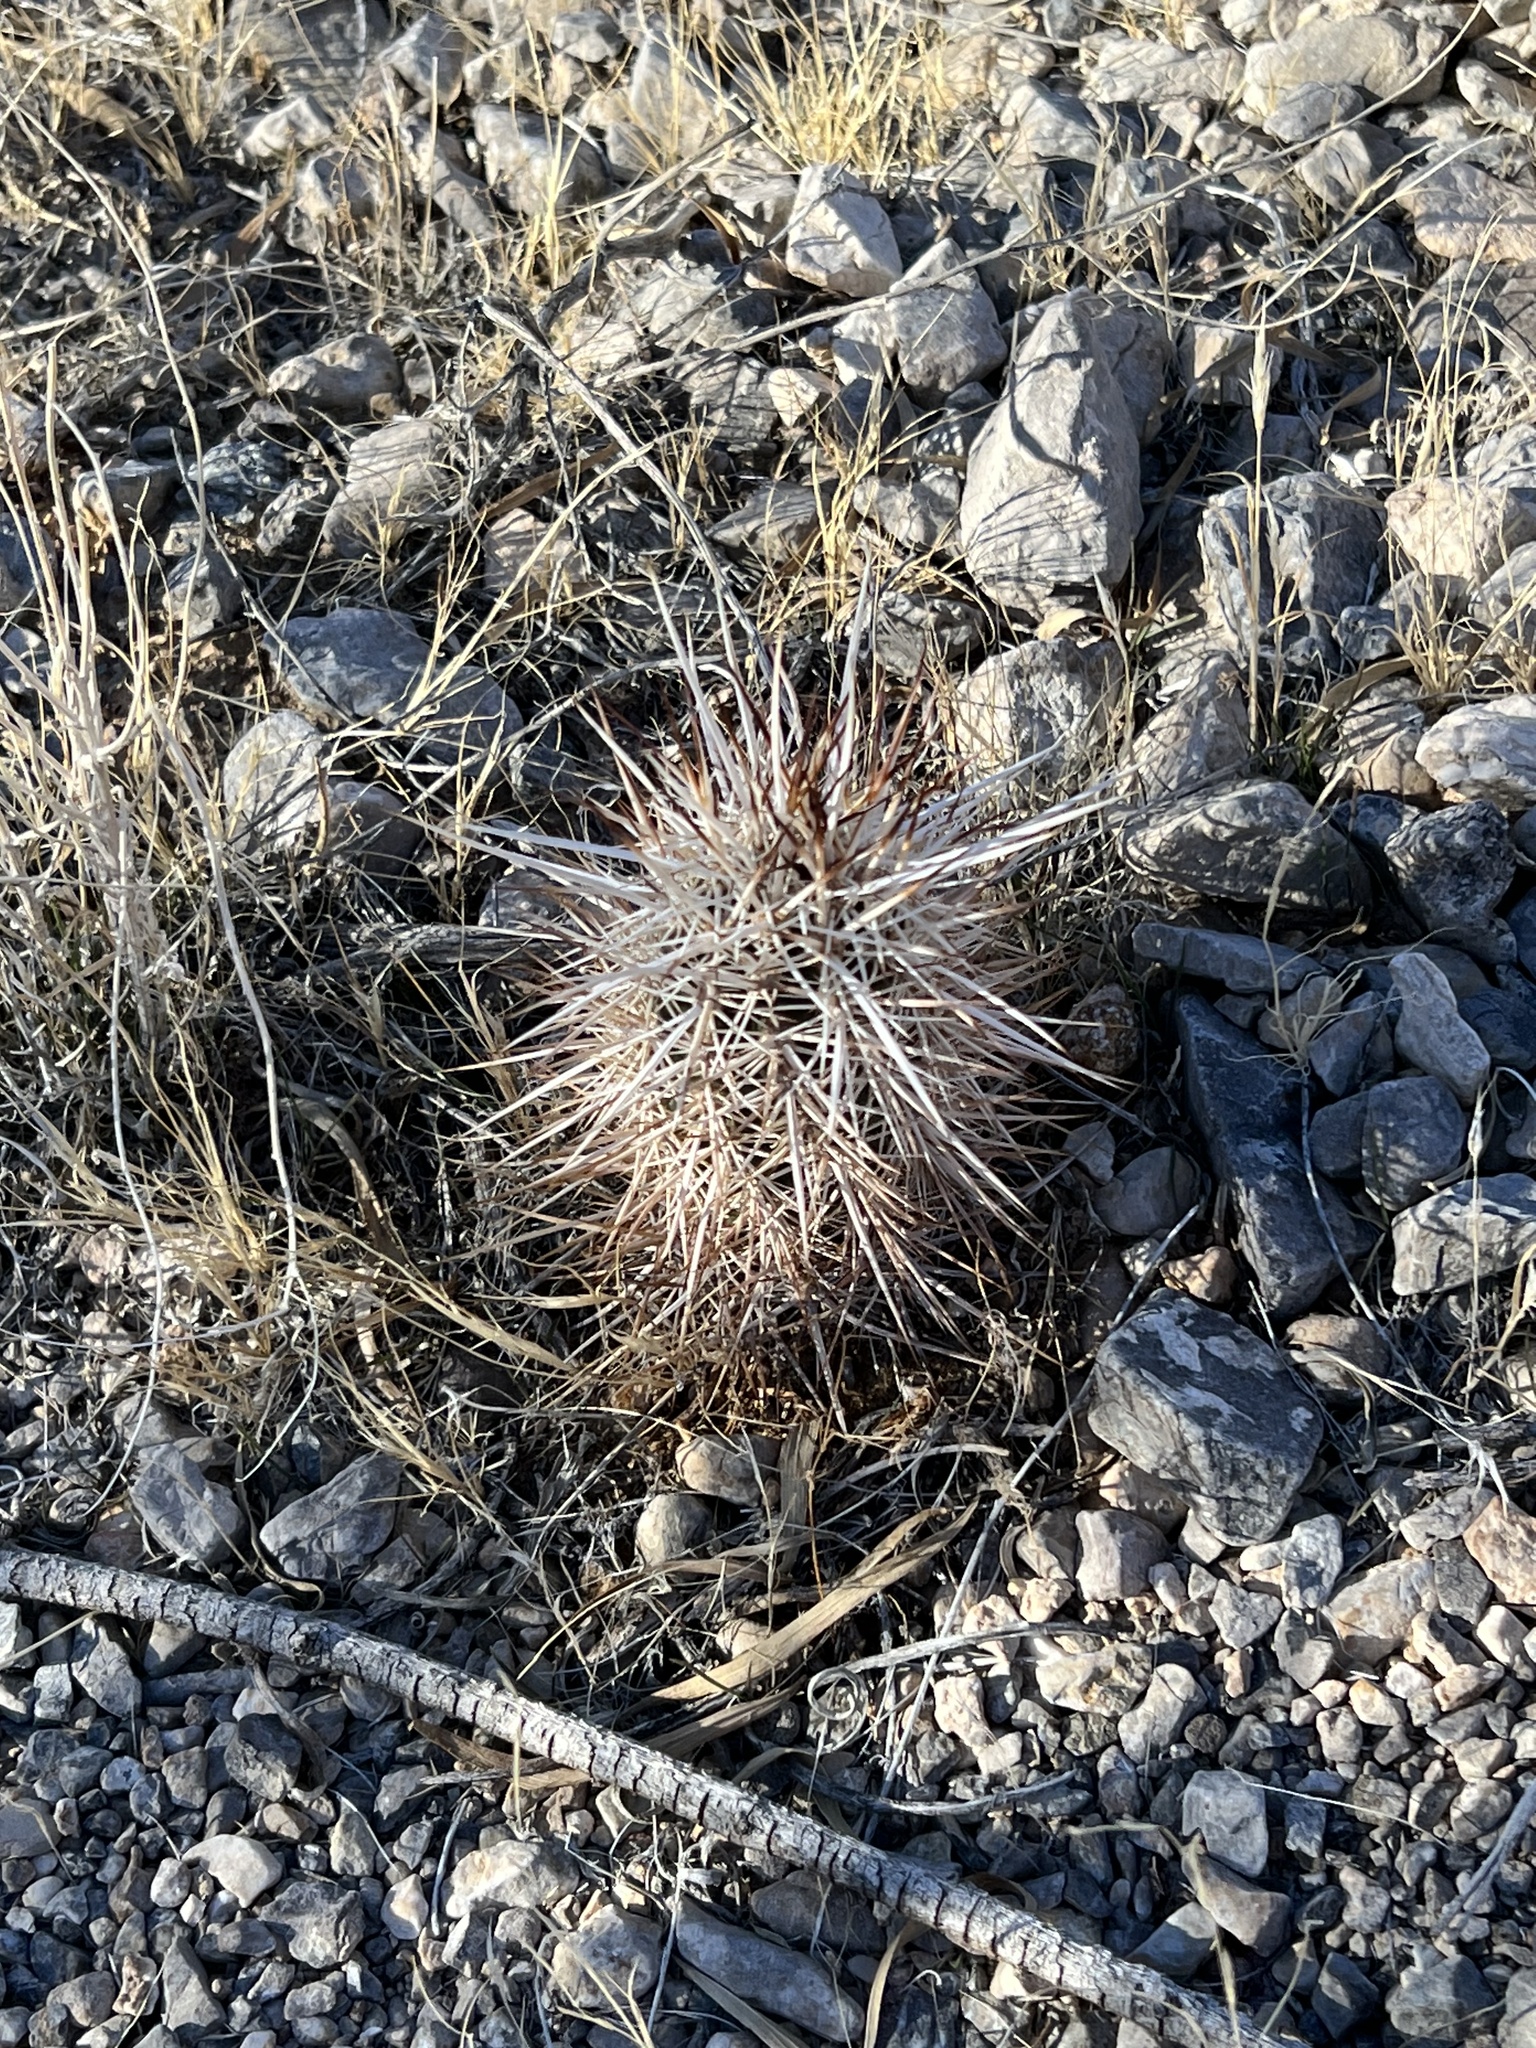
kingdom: Plantae
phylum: Tracheophyta
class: Magnoliopsida
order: Caryophyllales
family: Cactaceae
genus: Echinocereus
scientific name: Echinocereus engelmannii
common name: Engelmann's hedgehog cactus
